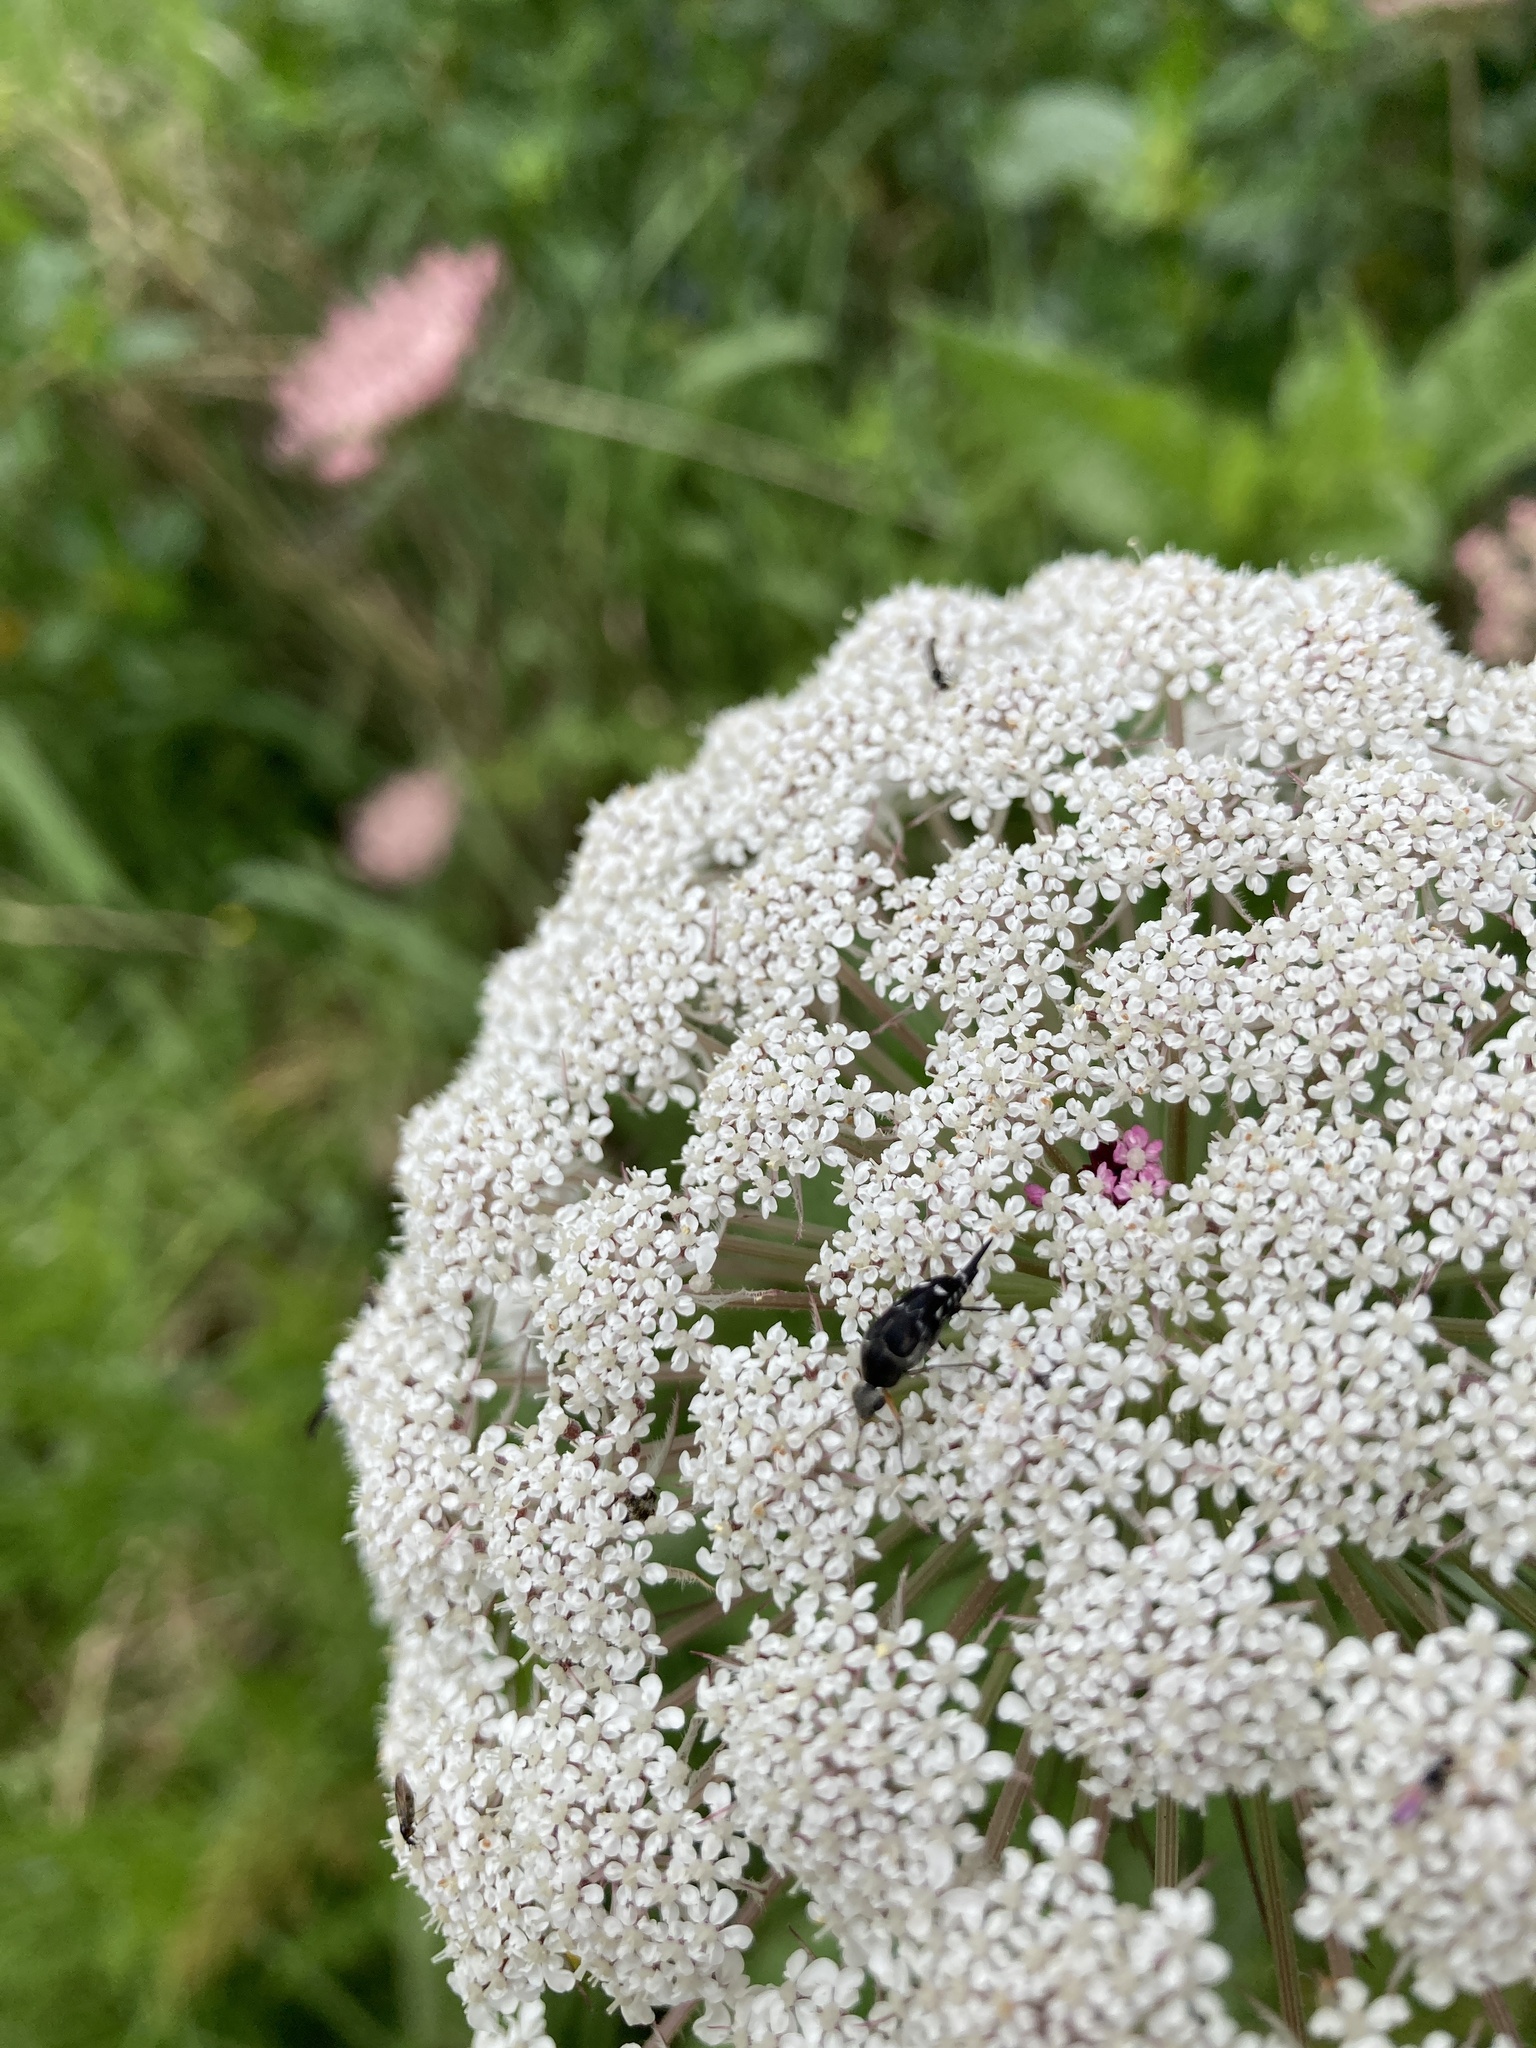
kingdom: Plantae
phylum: Tracheophyta
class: Magnoliopsida
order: Apiales
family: Apiaceae
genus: Daucus
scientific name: Daucus carota
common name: Wild carrot
